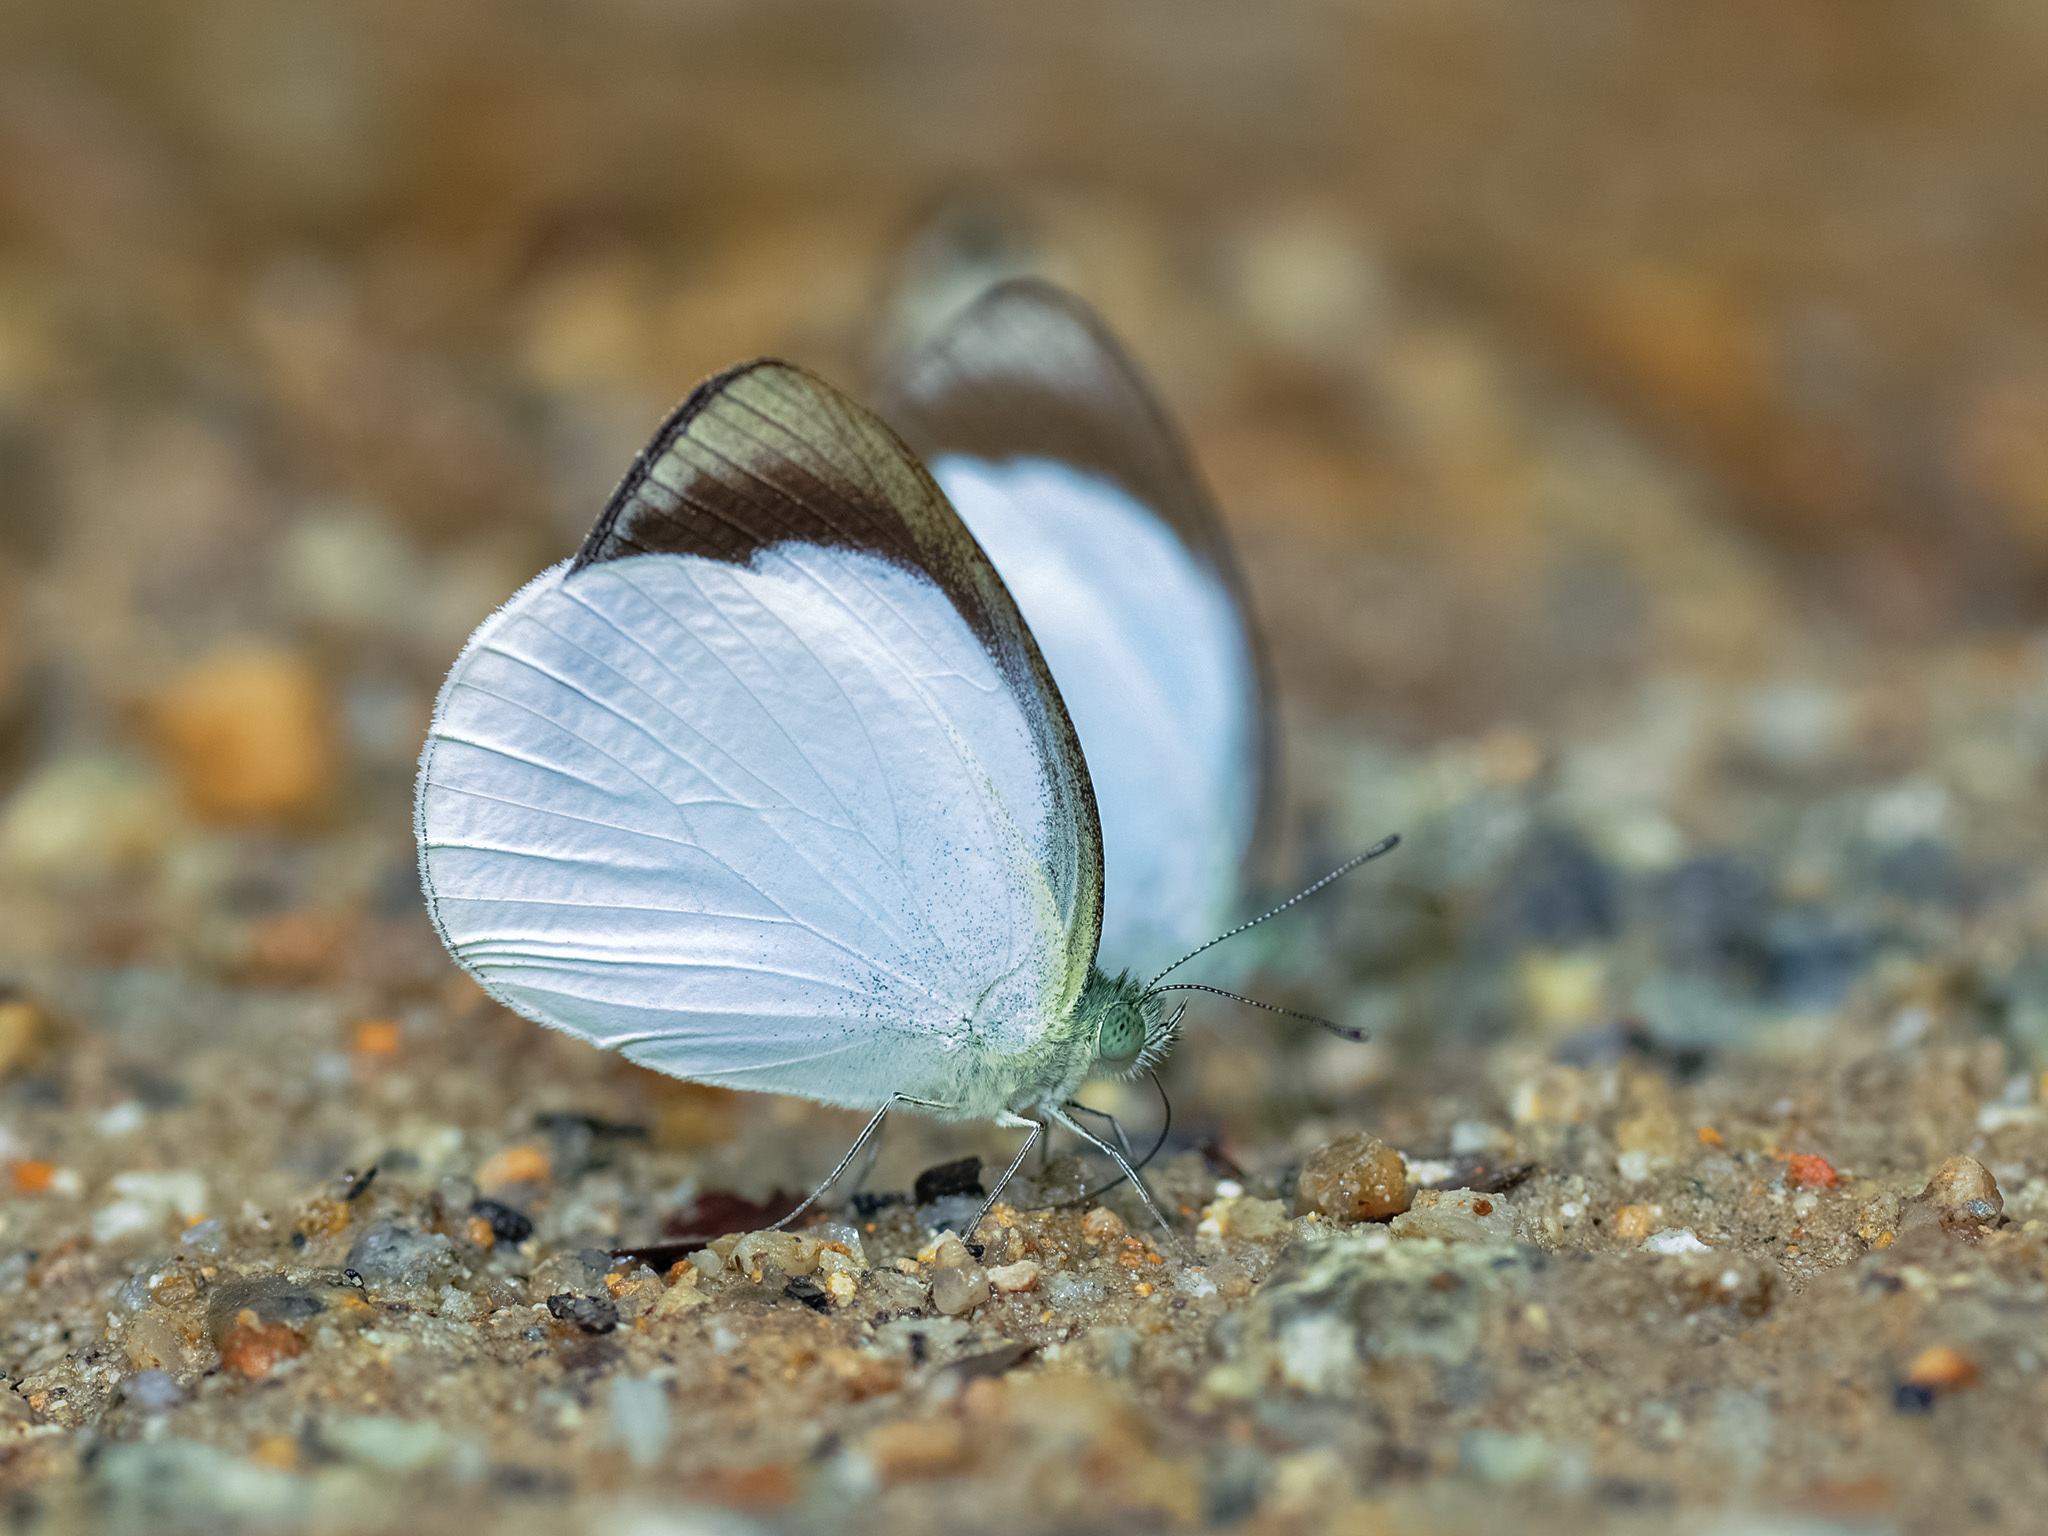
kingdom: Animalia
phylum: Arthropoda
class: Insecta
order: Lepidoptera
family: Pieridae
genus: Phrissura
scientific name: Phrissura
